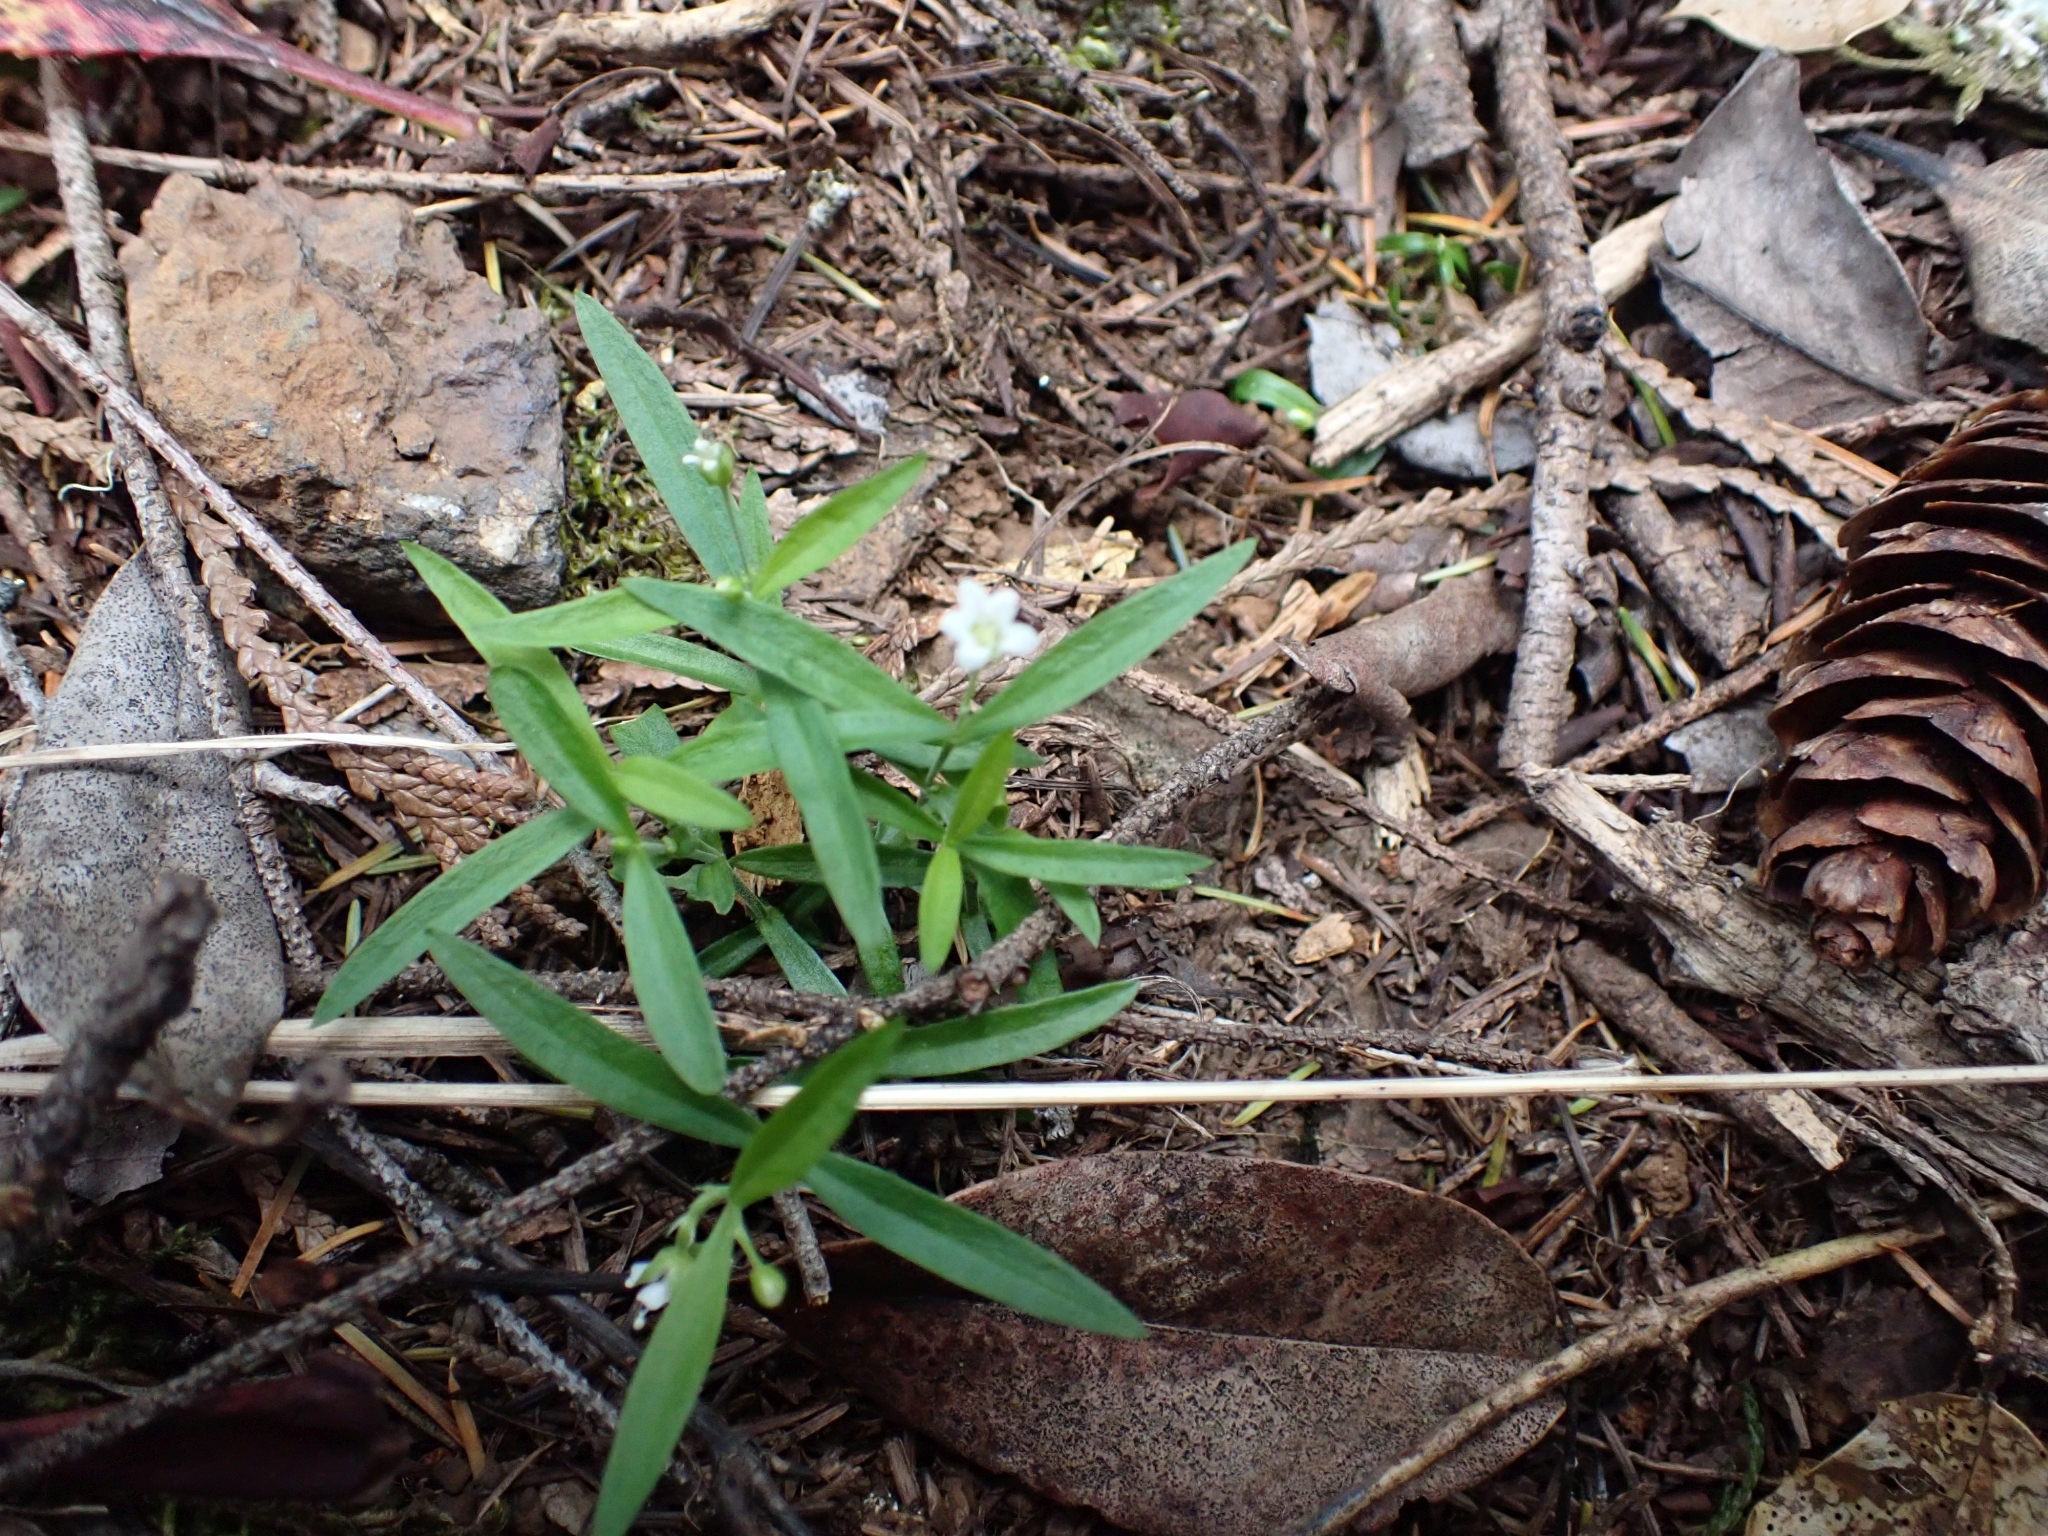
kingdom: Plantae
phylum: Tracheophyta
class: Magnoliopsida
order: Caryophyllales
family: Caryophyllaceae
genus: Moehringia
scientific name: Moehringia macrophylla
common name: Big-leaf sandwort
